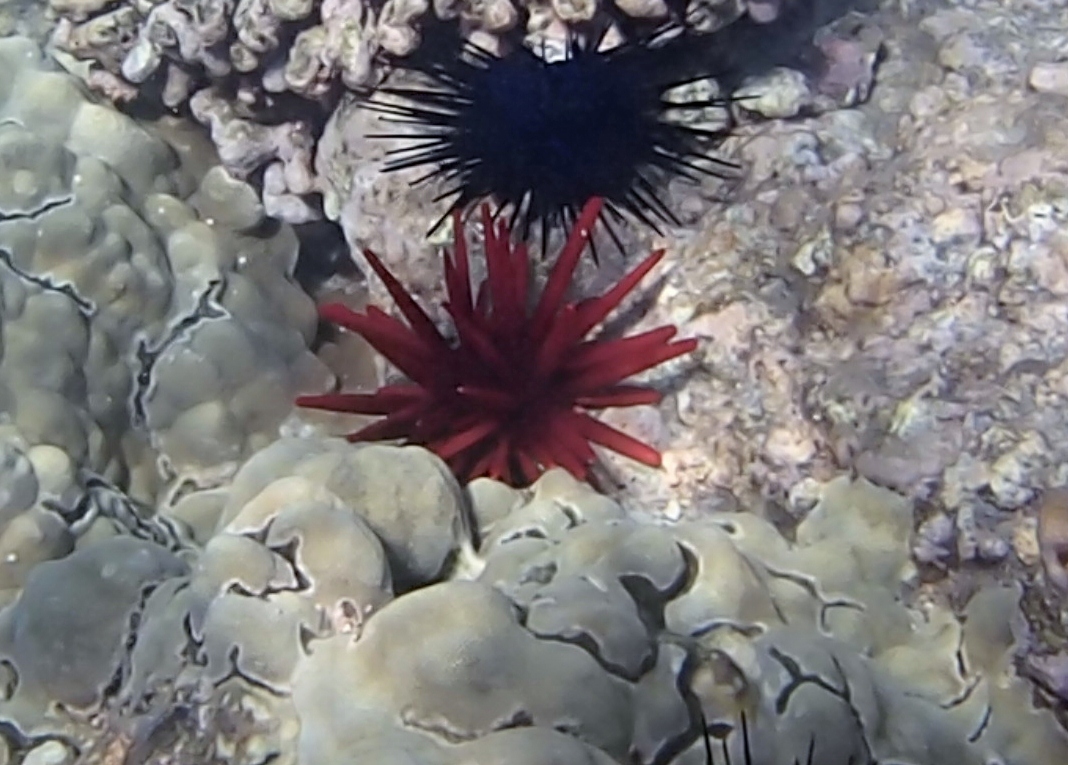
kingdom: Animalia
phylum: Echinodermata
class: Echinoidea
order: Camarodonta
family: Echinometridae
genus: Heterocentrotus
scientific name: Heterocentrotus mamillatus
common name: Slate pencil urchin
